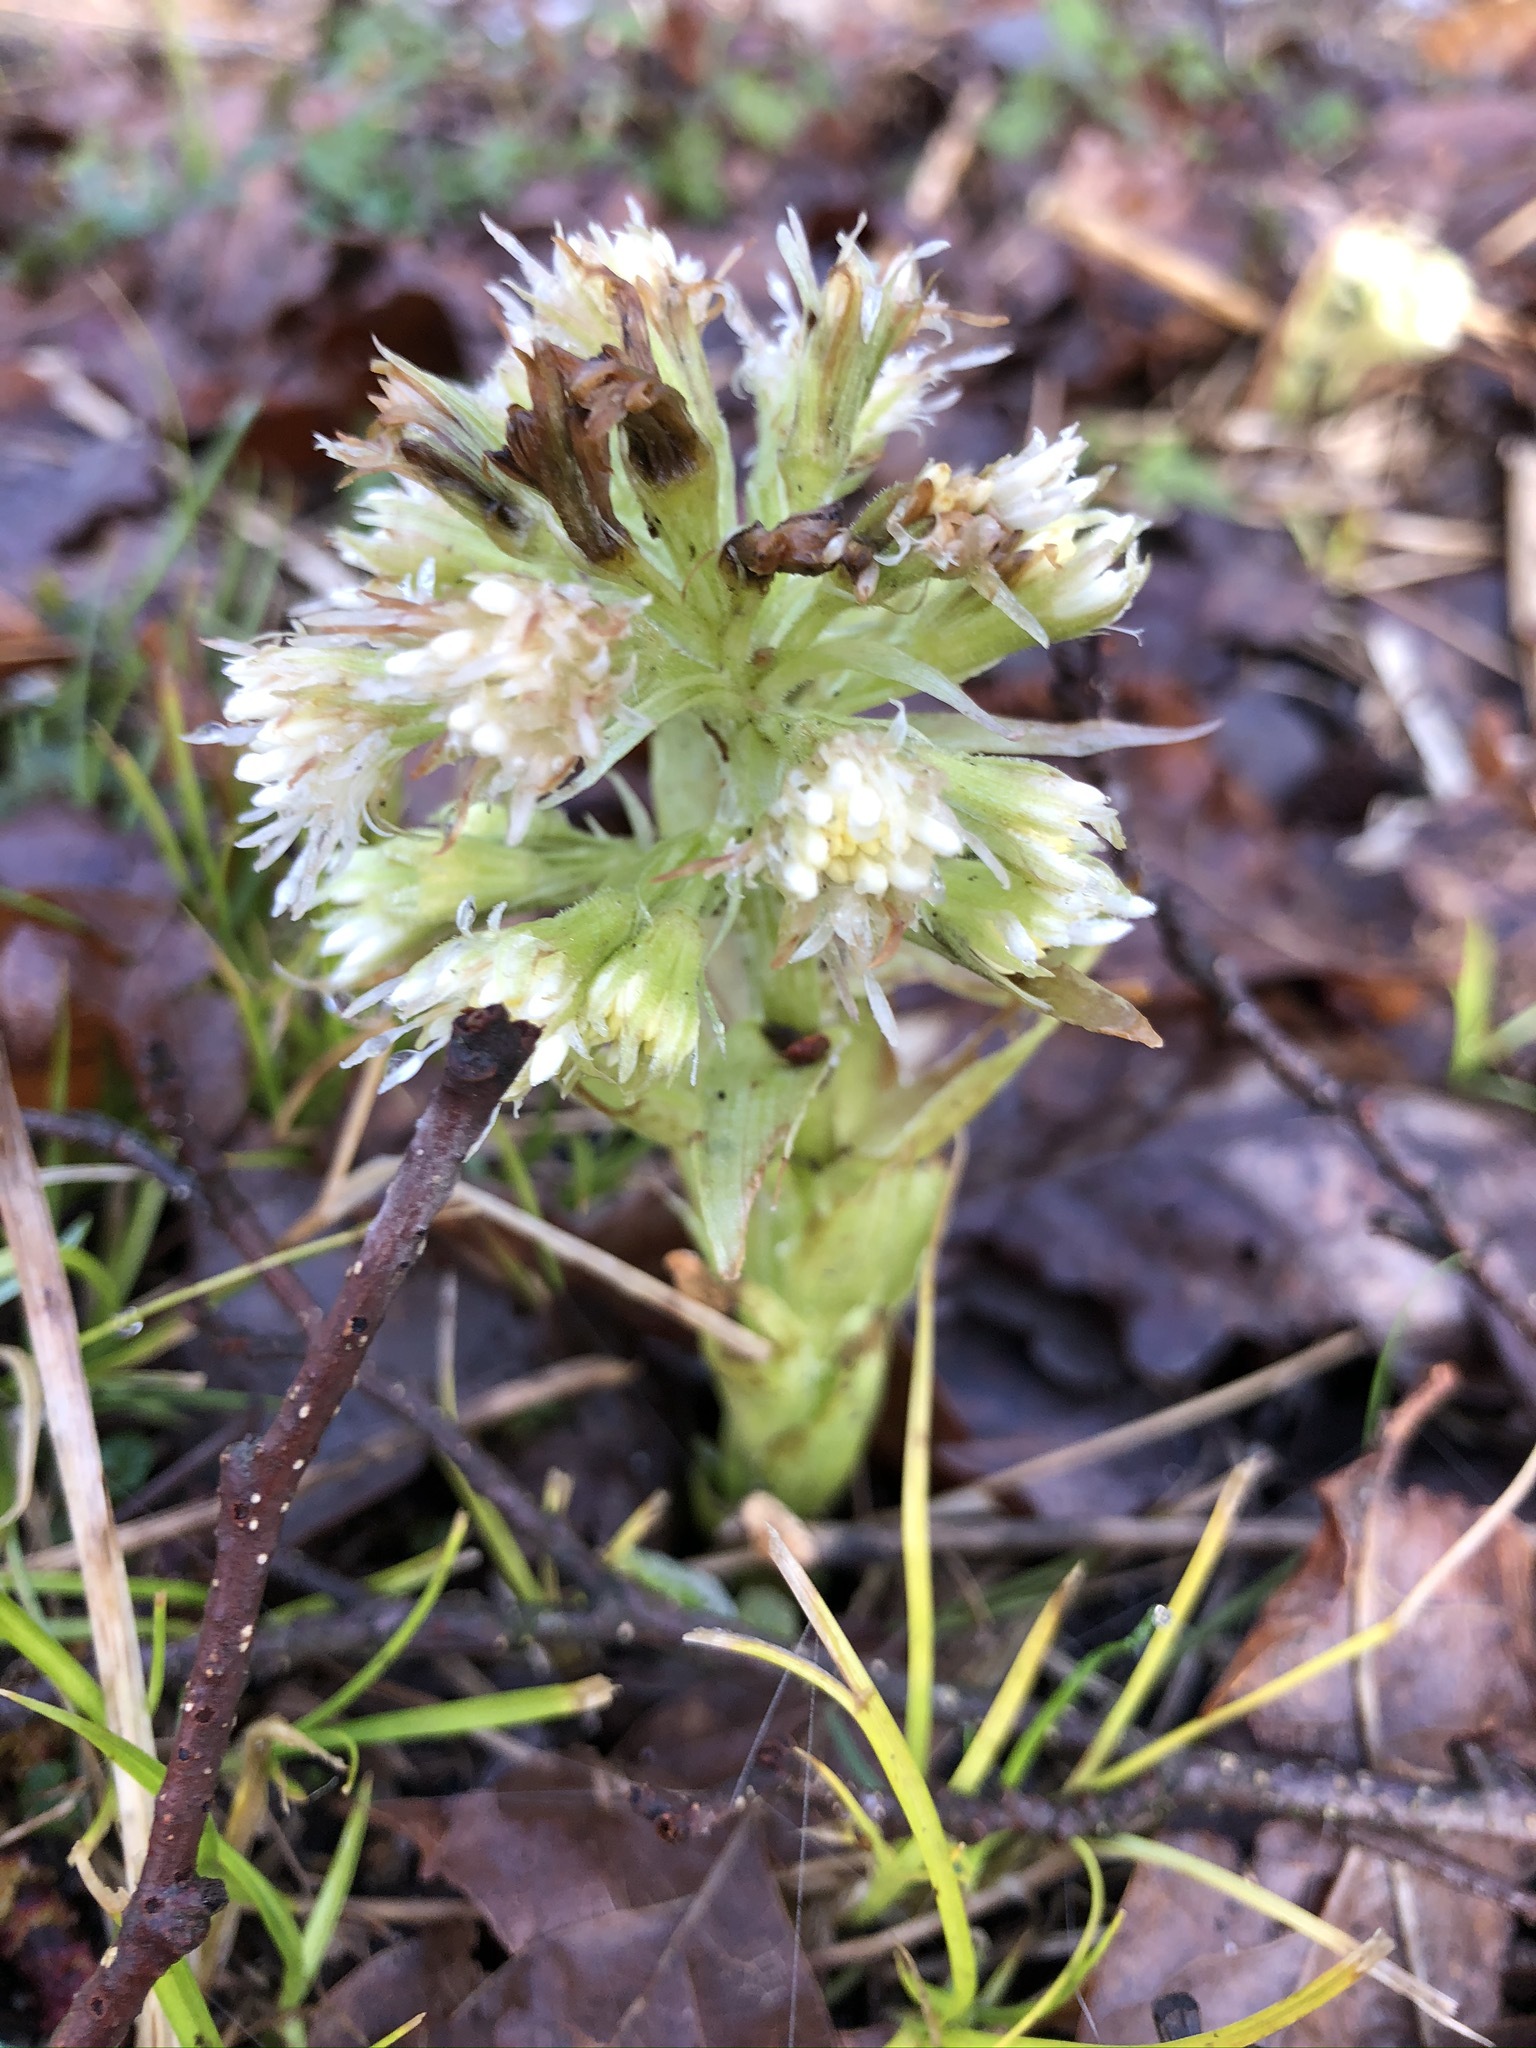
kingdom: Plantae
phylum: Tracheophyta
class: Magnoliopsida
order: Asterales
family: Asteraceae
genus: Petasites
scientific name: Petasites albus
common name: White butterbur
